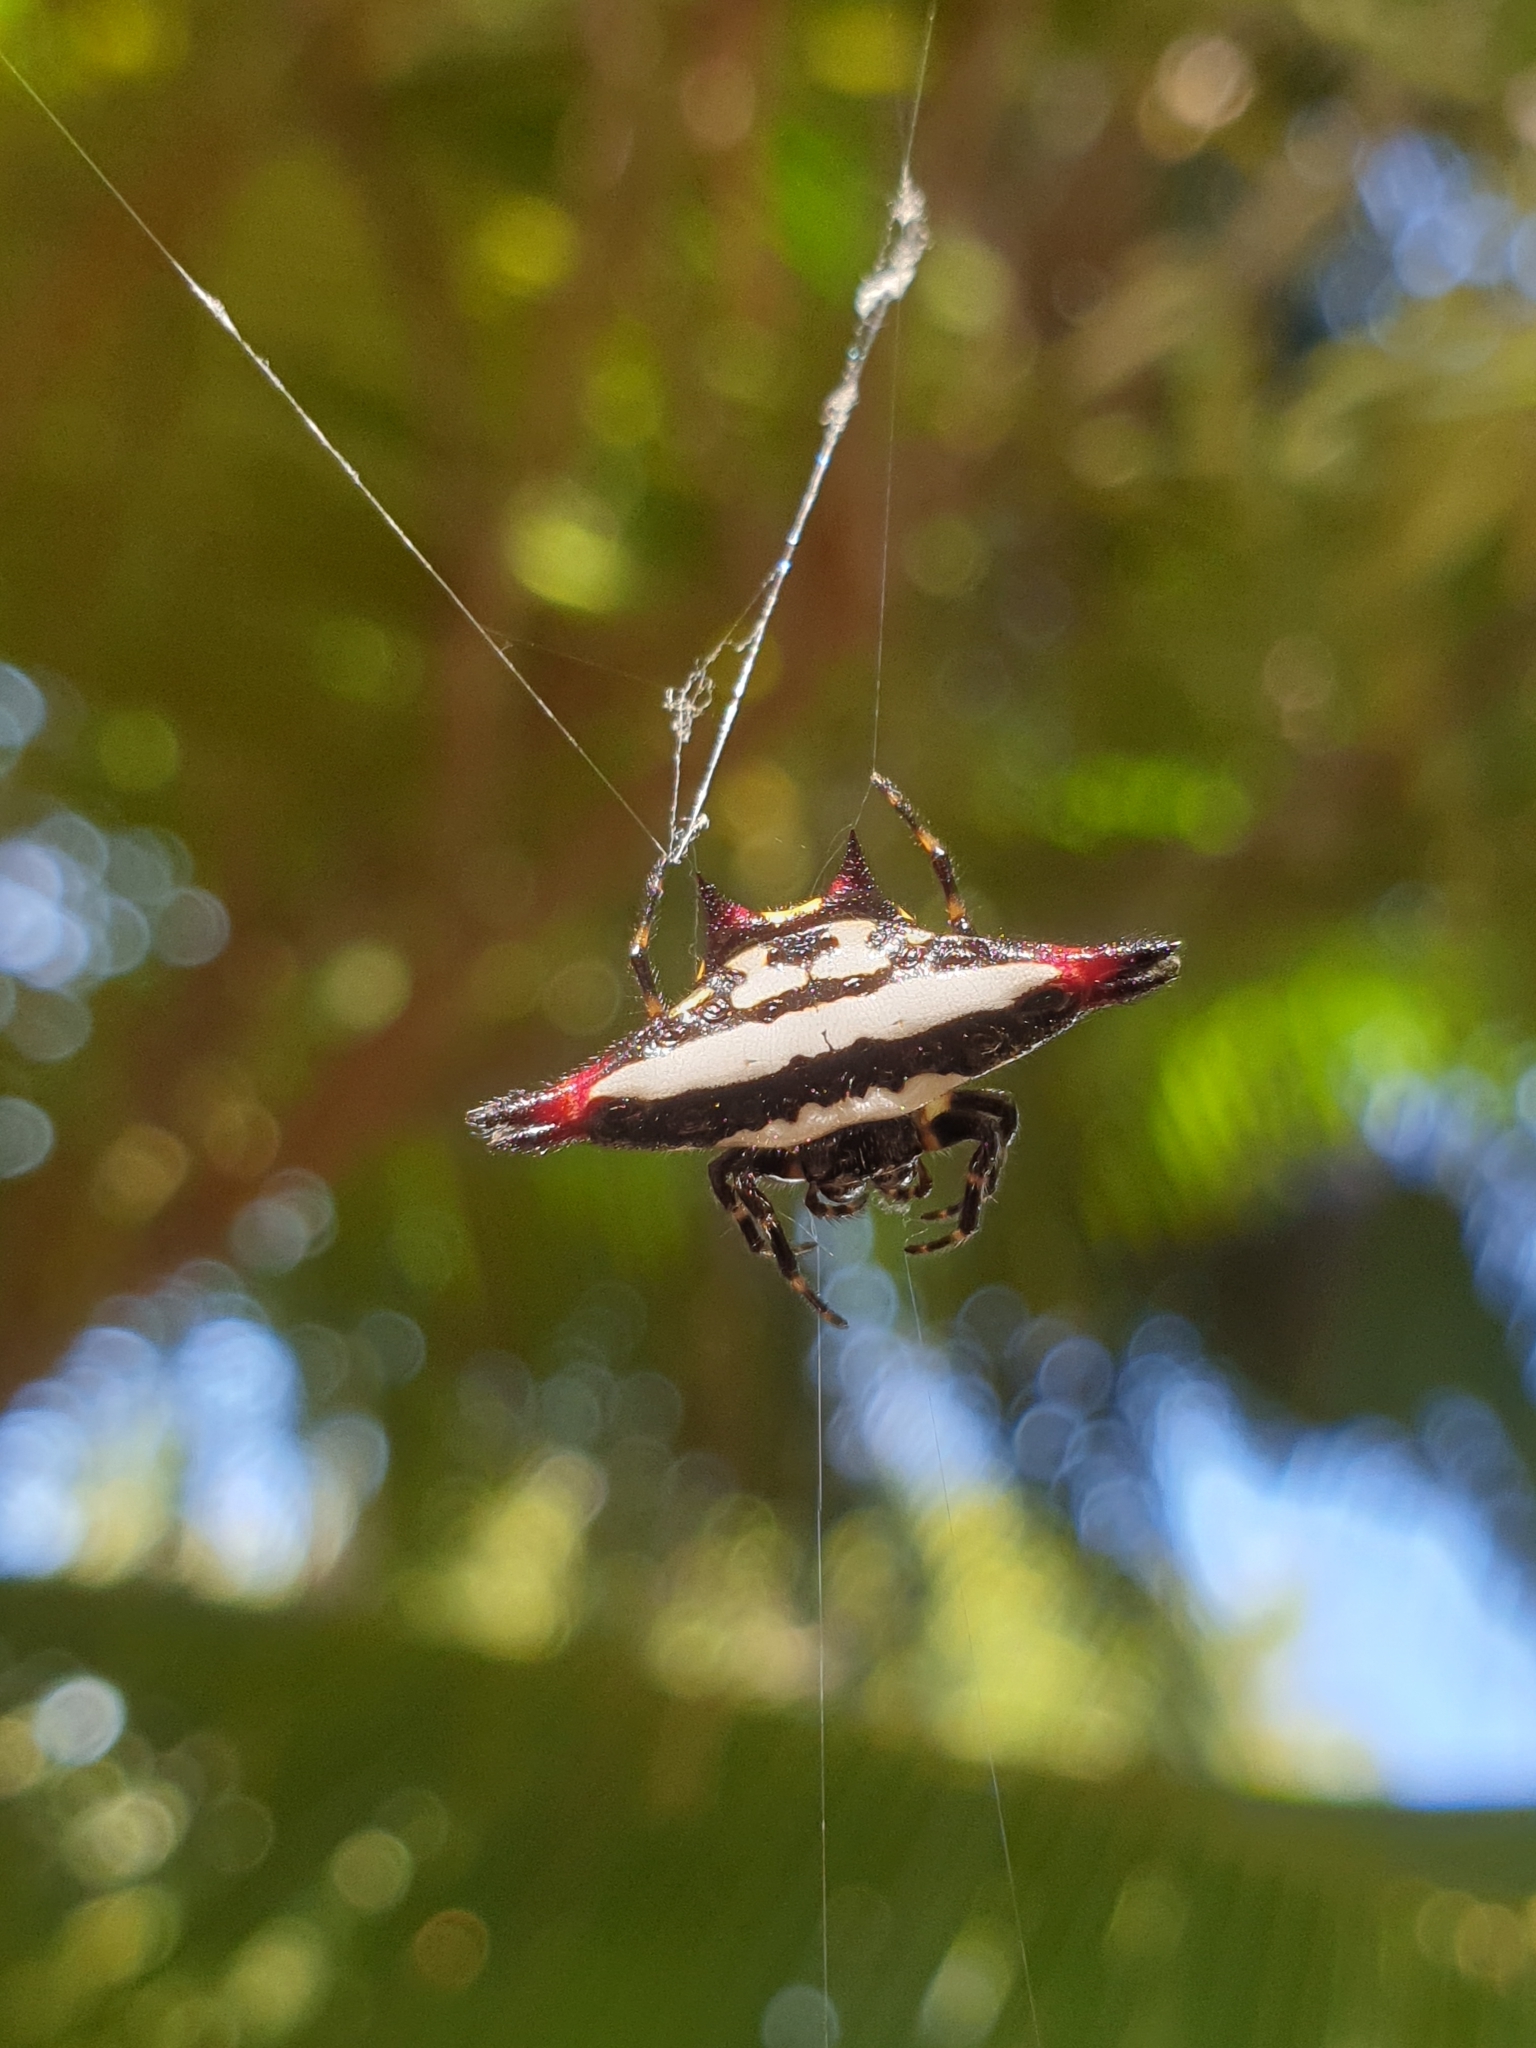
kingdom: Animalia
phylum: Arthropoda
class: Arachnida
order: Araneae
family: Araneidae
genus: Gasteracantha
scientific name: Gasteracantha geminata
